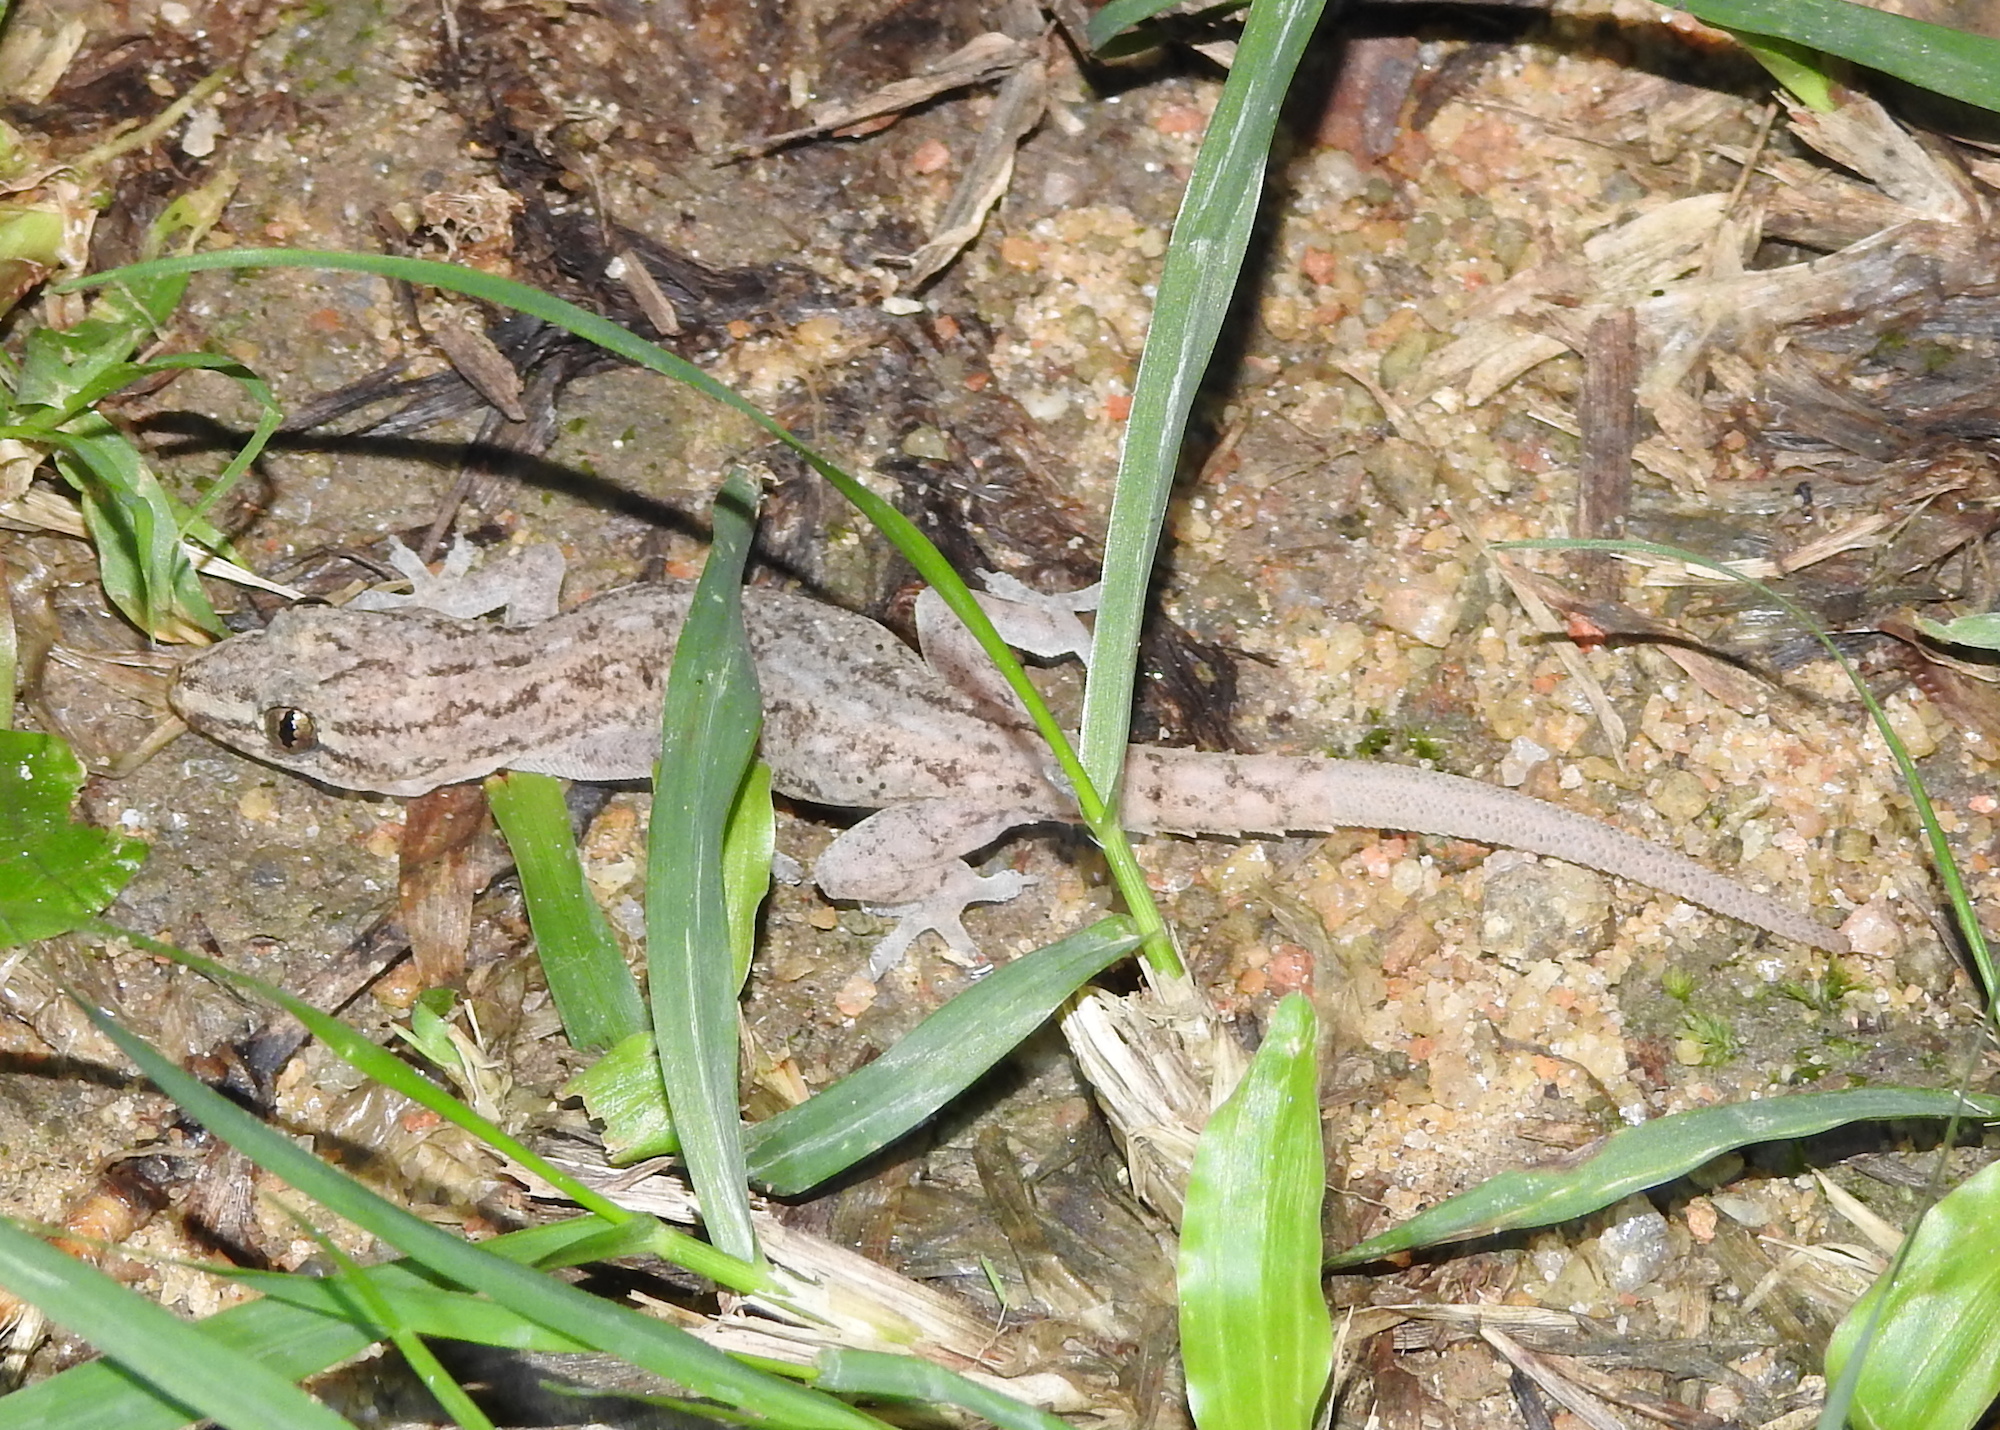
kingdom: Animalia
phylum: Chordata
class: Squamata
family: Gekkonidae
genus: Hemidactylus
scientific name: Hemidactylus frenatus
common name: Common house gecko
